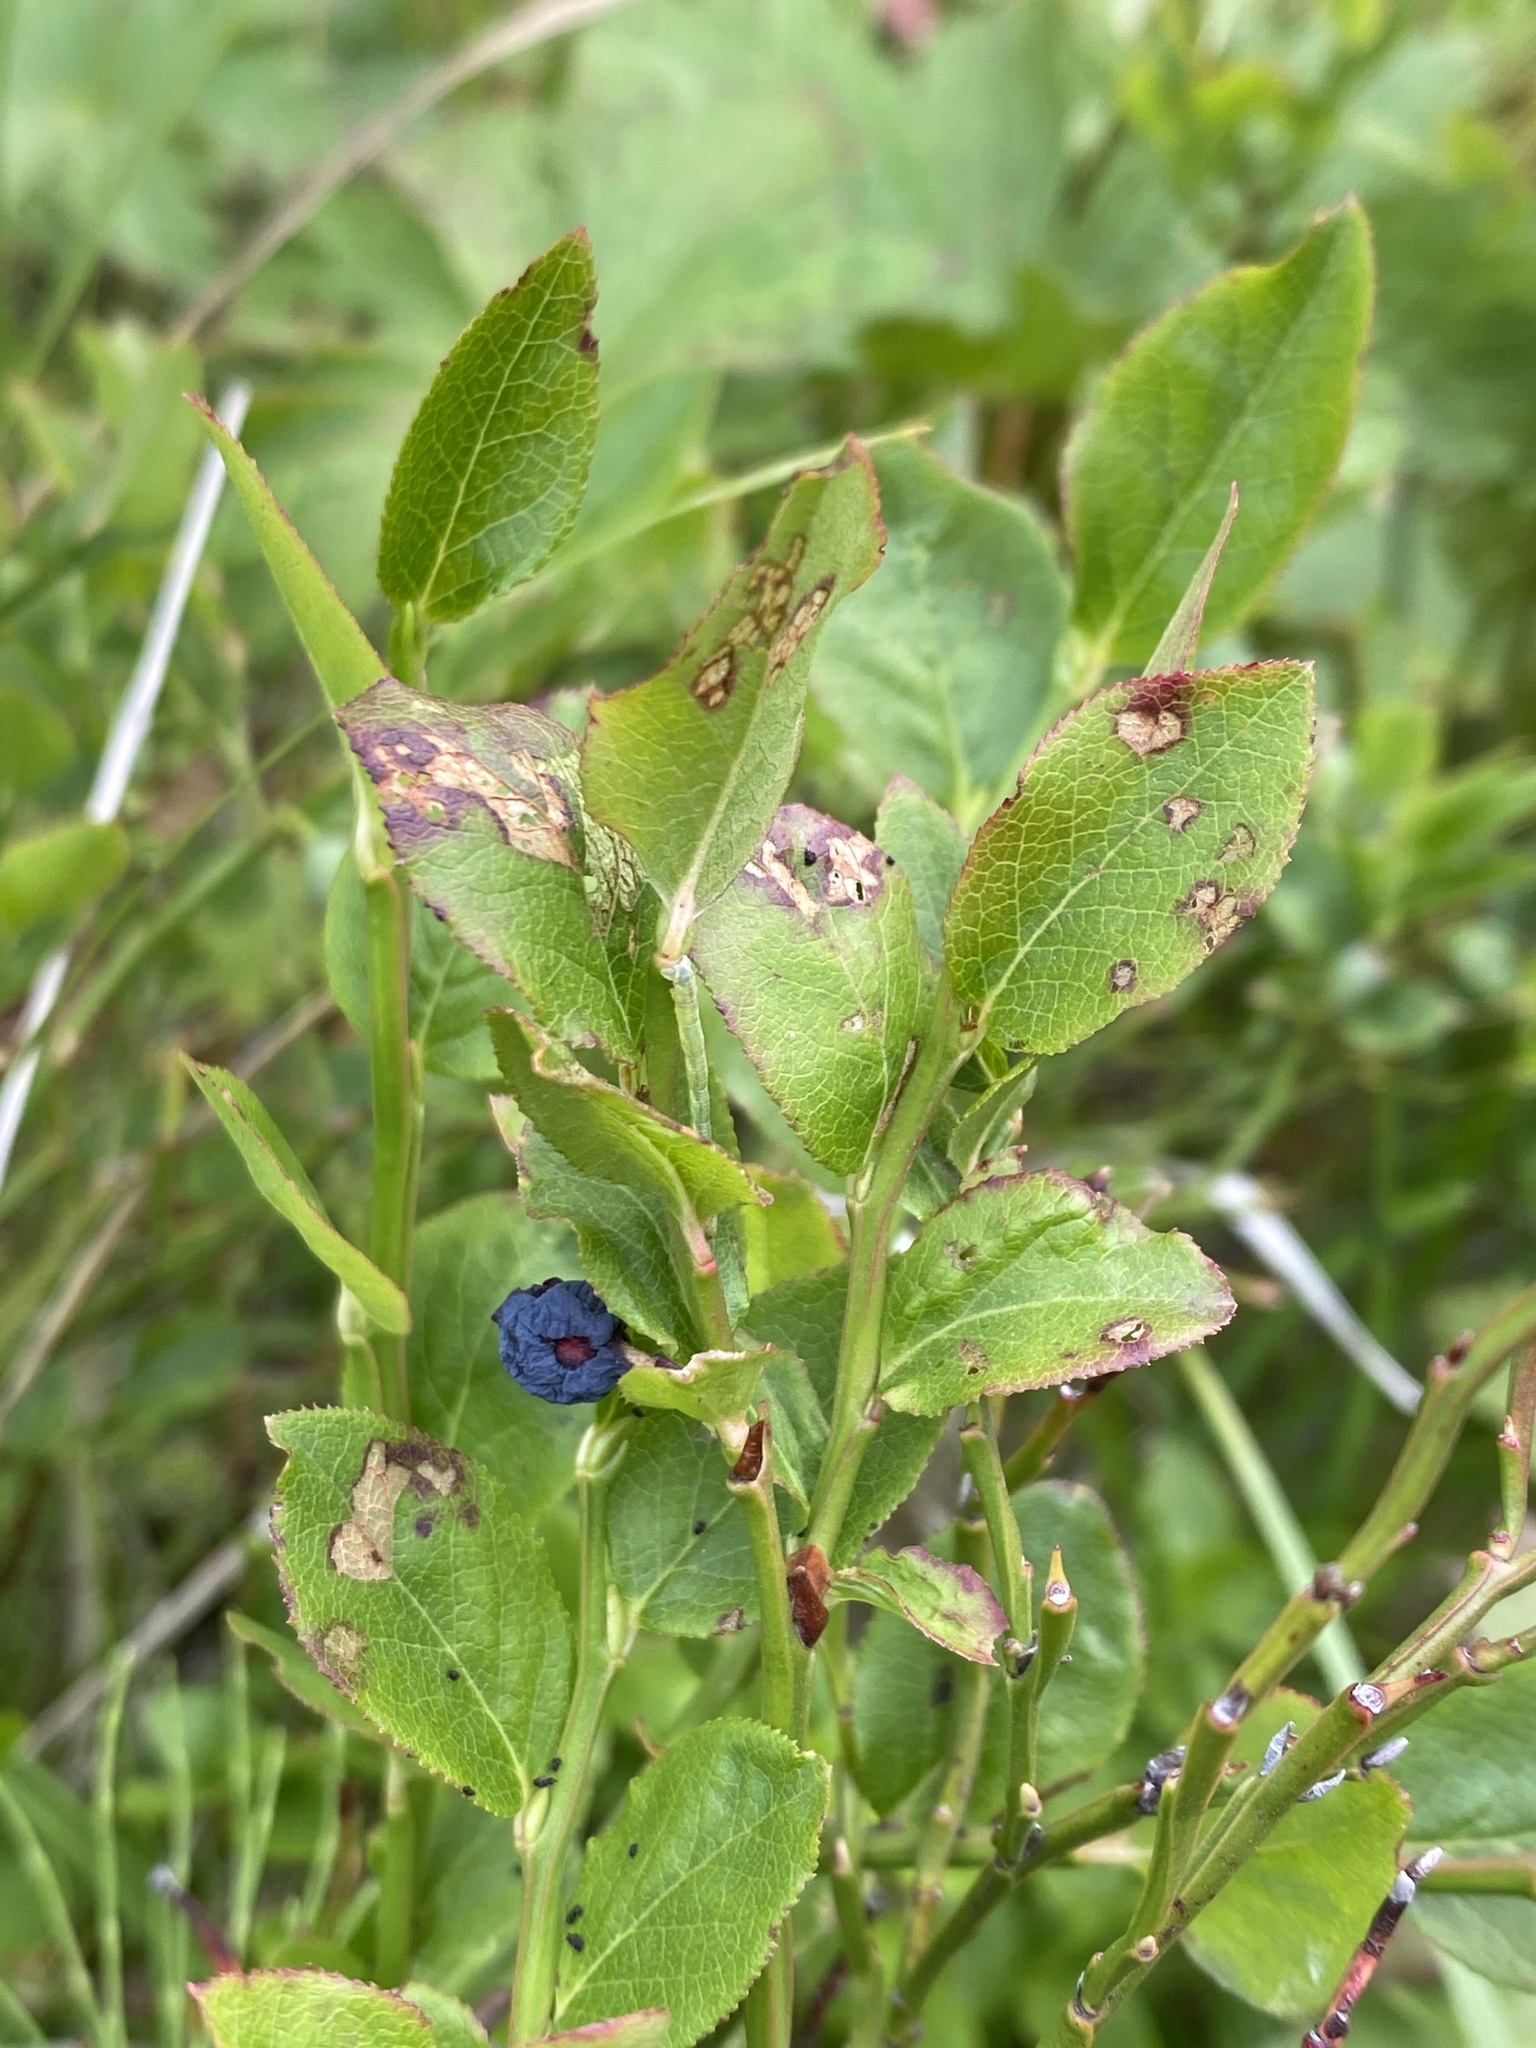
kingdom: Plantae
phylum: Tracheophyta
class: Magnoliopsida
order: Ericales
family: Ericaceae
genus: Vaccinium
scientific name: Vaccinium myrtillus
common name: Bilberry
